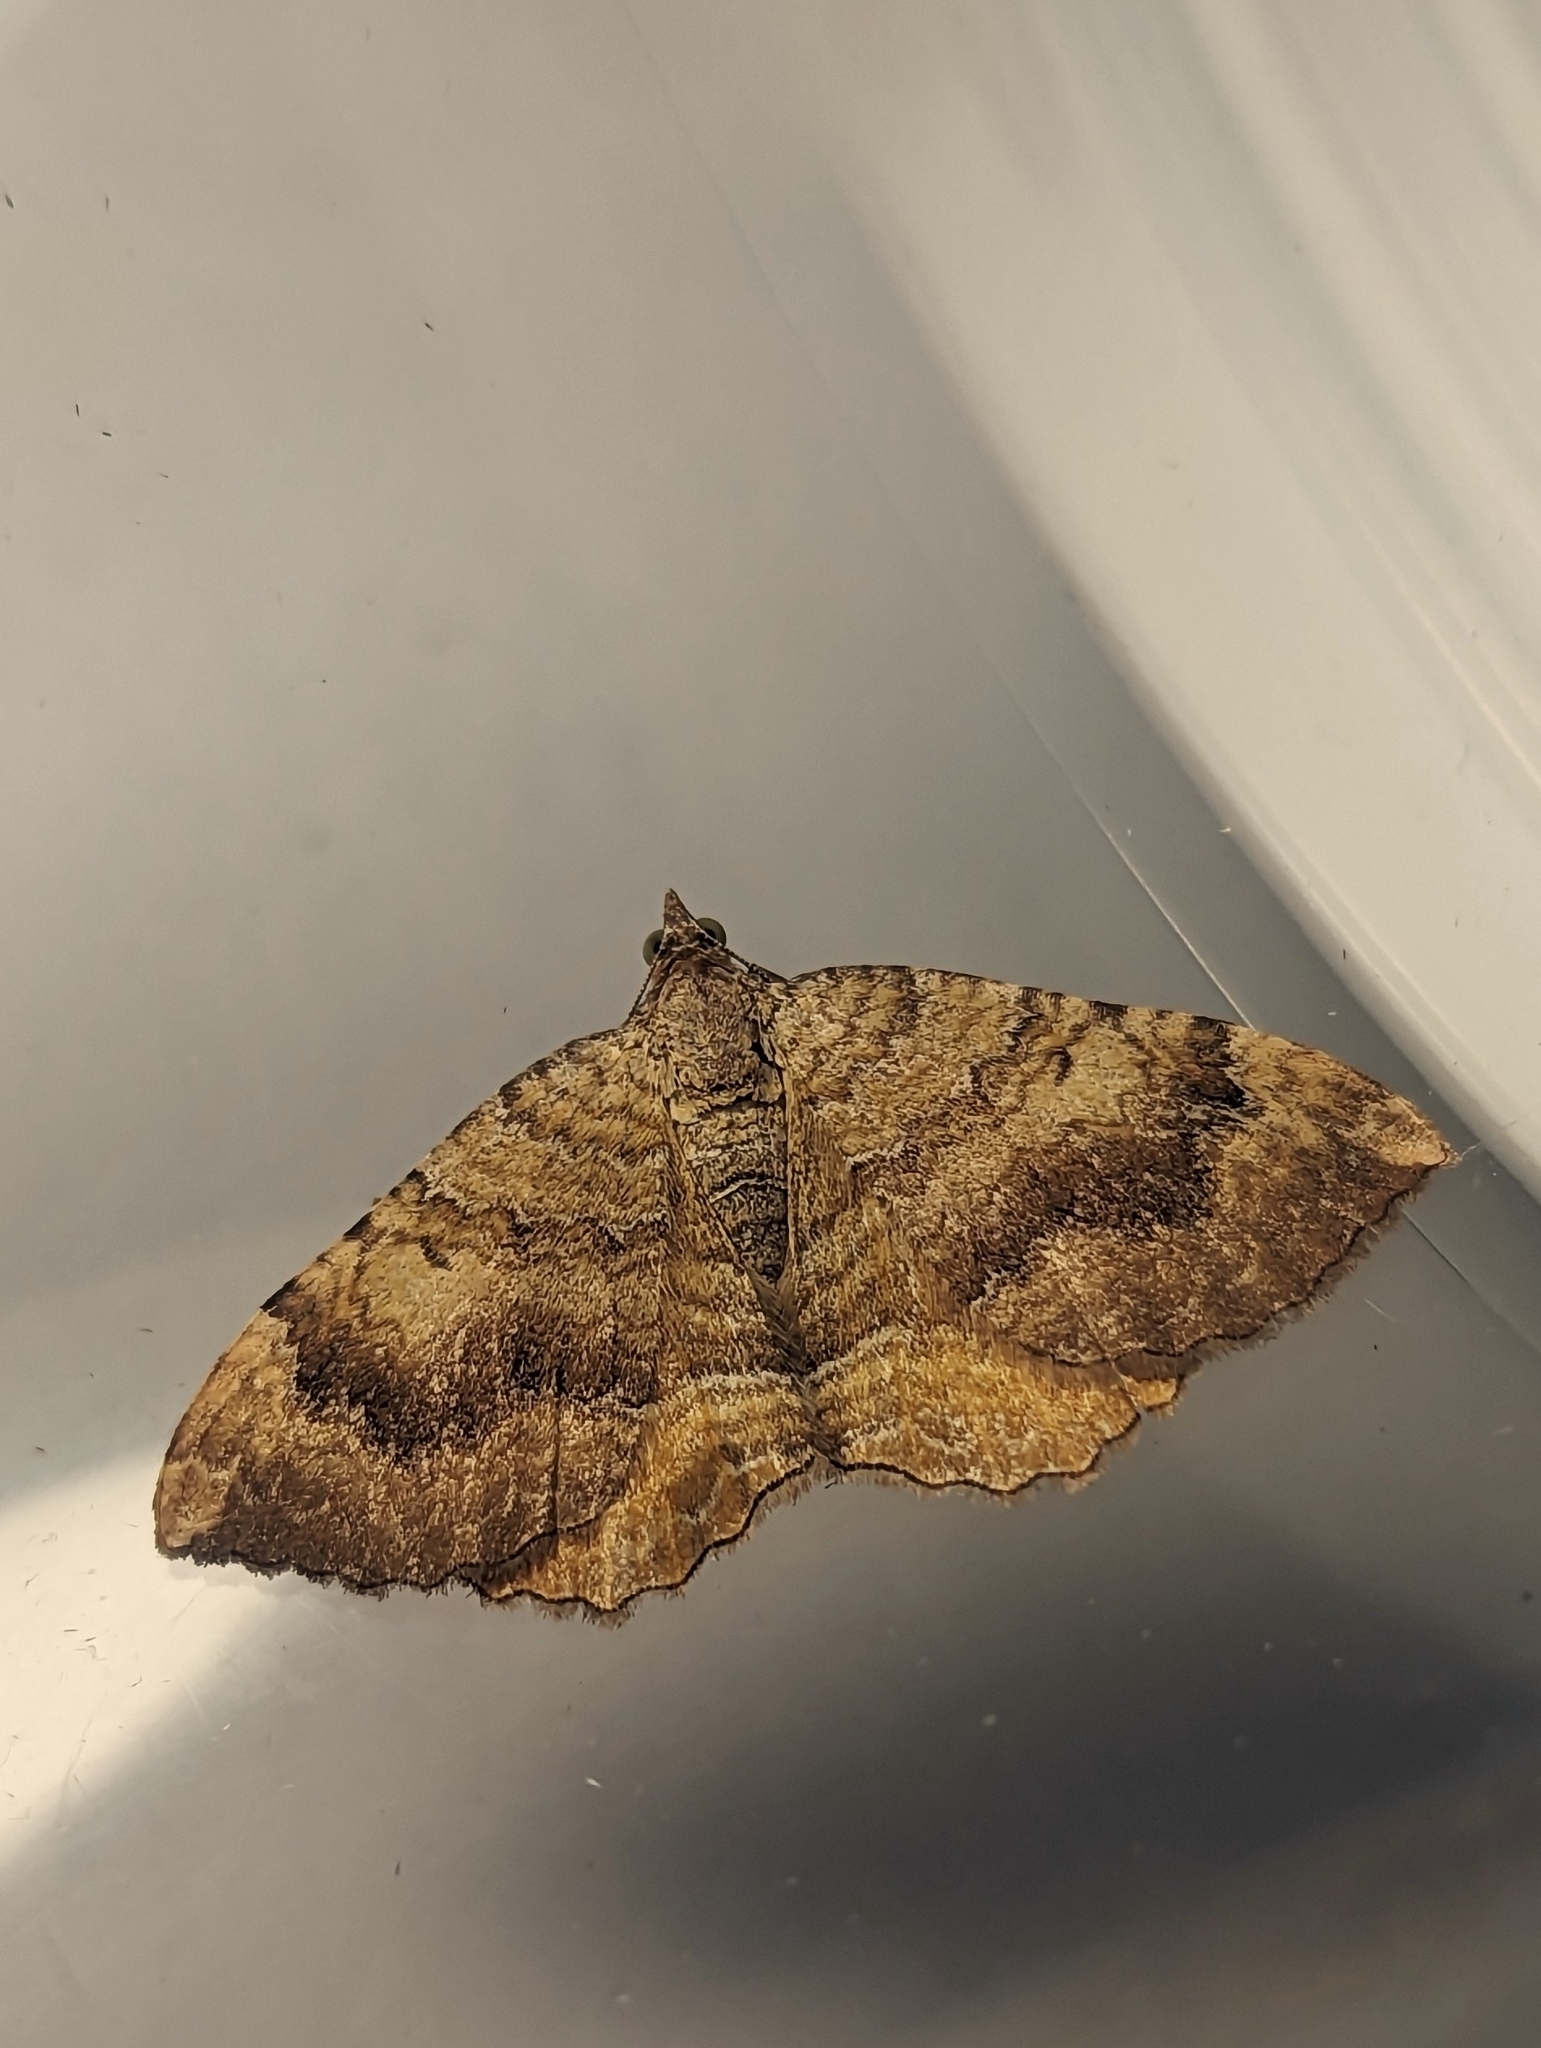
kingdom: Animalia
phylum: Arthropoda
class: Insecta
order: Lepidoptera
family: Geometridae
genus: Camptogramma
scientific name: Camptogramma bilineata
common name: Yellow shell
